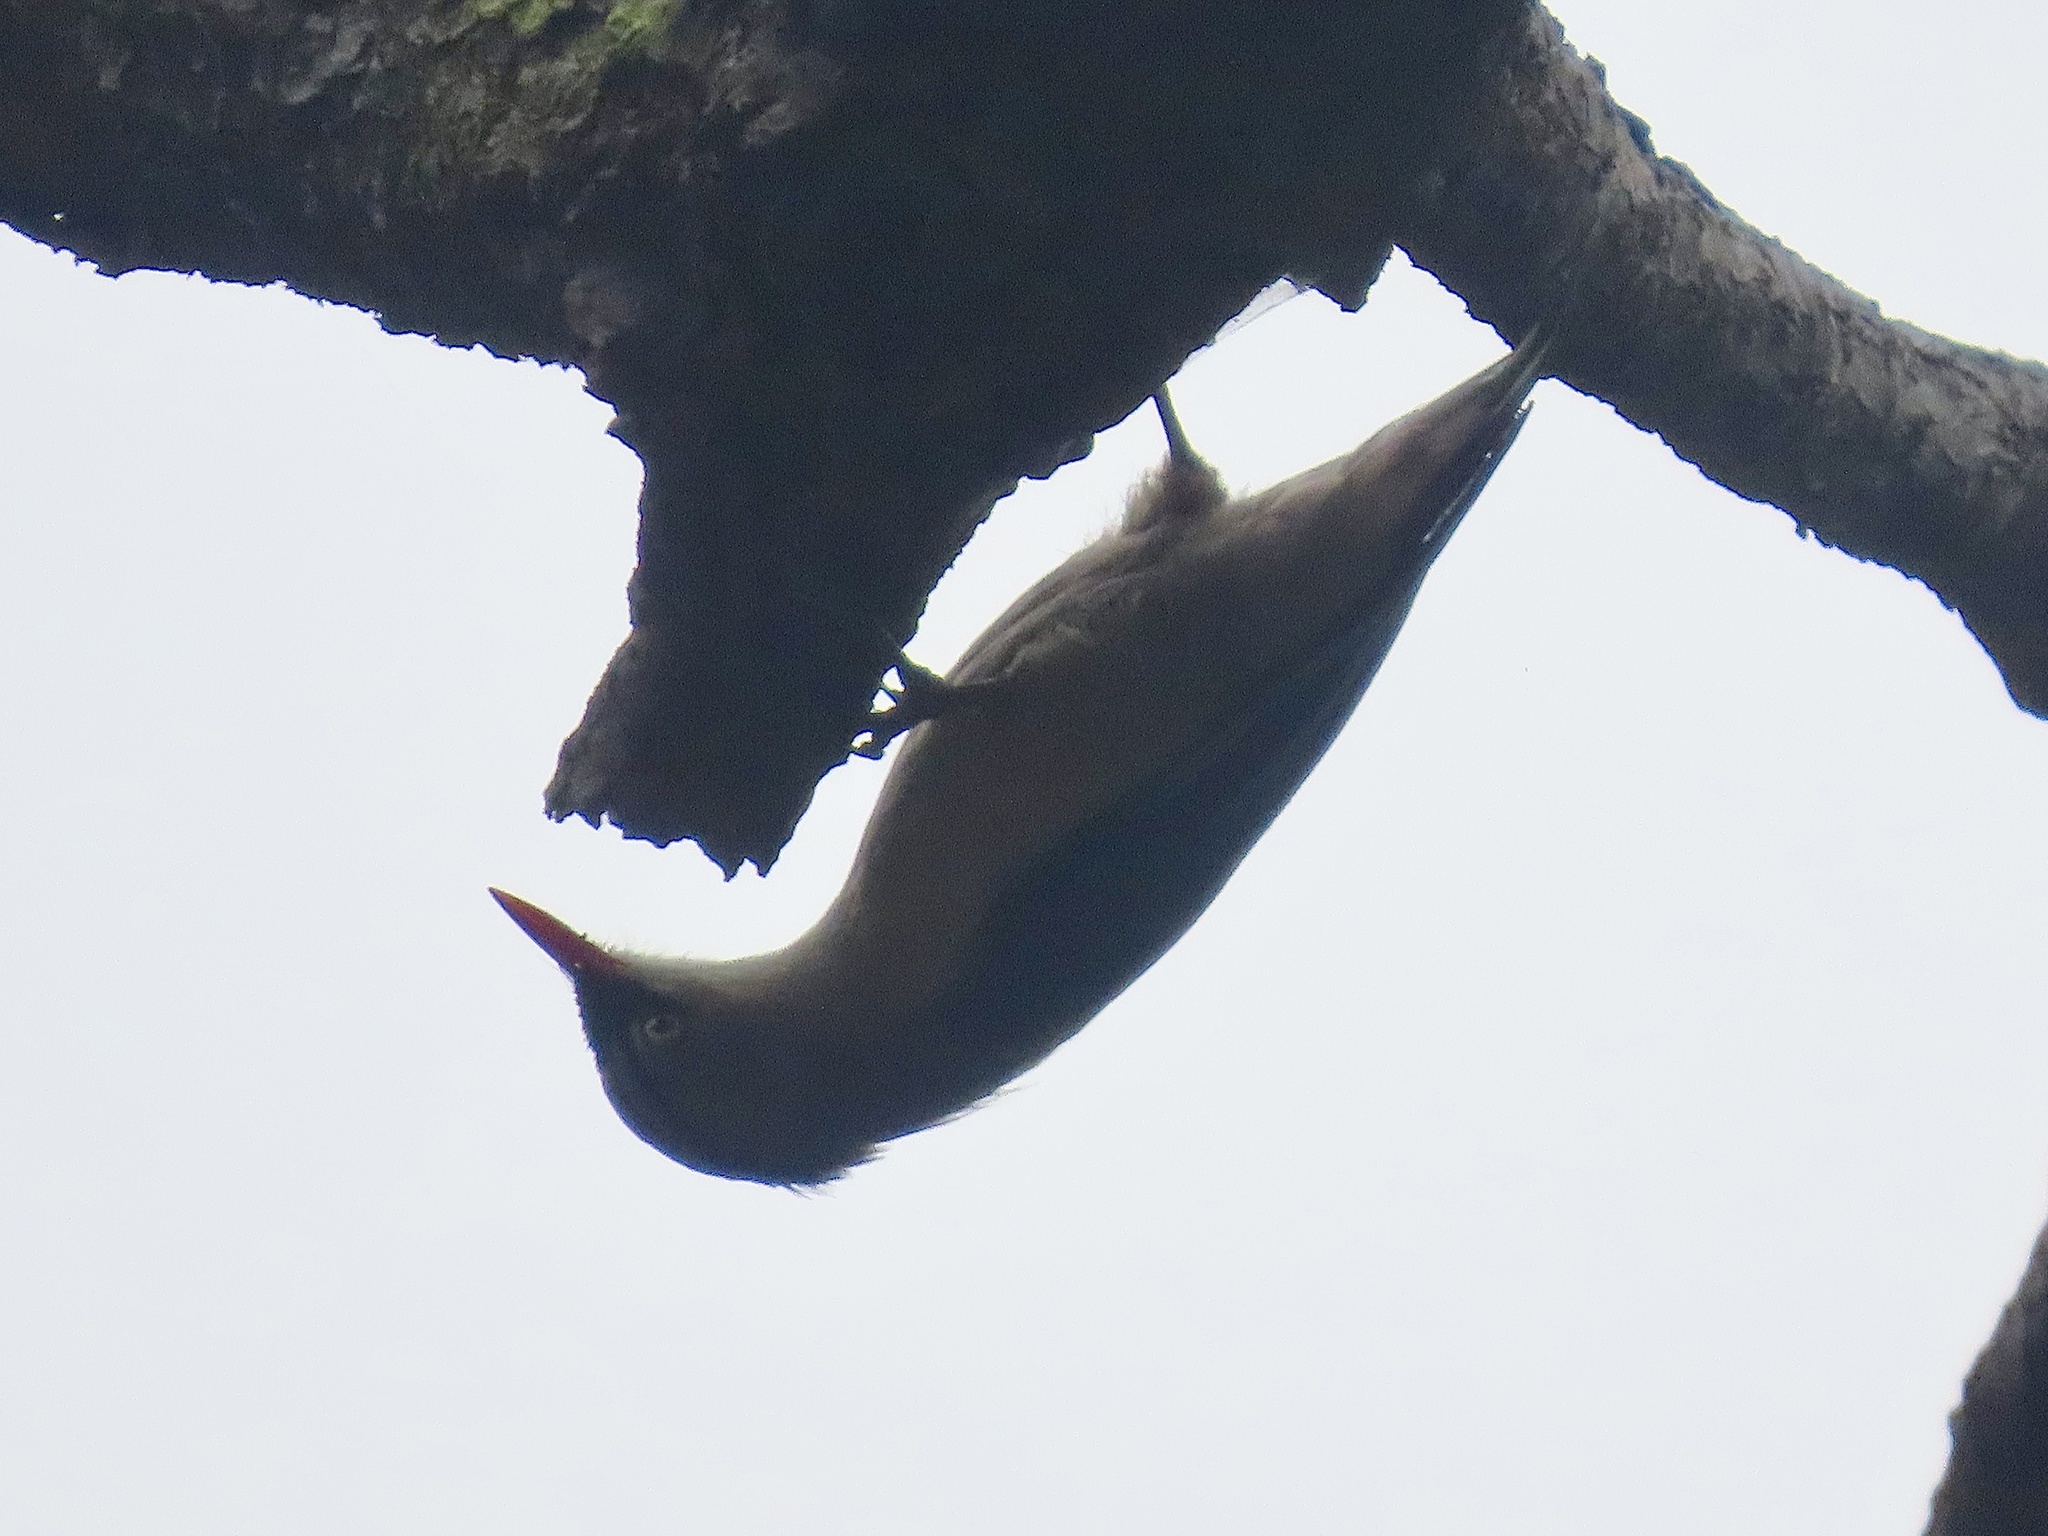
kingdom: Animalia
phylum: Chordata
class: Aves
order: Passeriformes
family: Sittidae
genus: Sitta
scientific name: Sitta frontalis
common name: Velvet-fronted nuthatch
